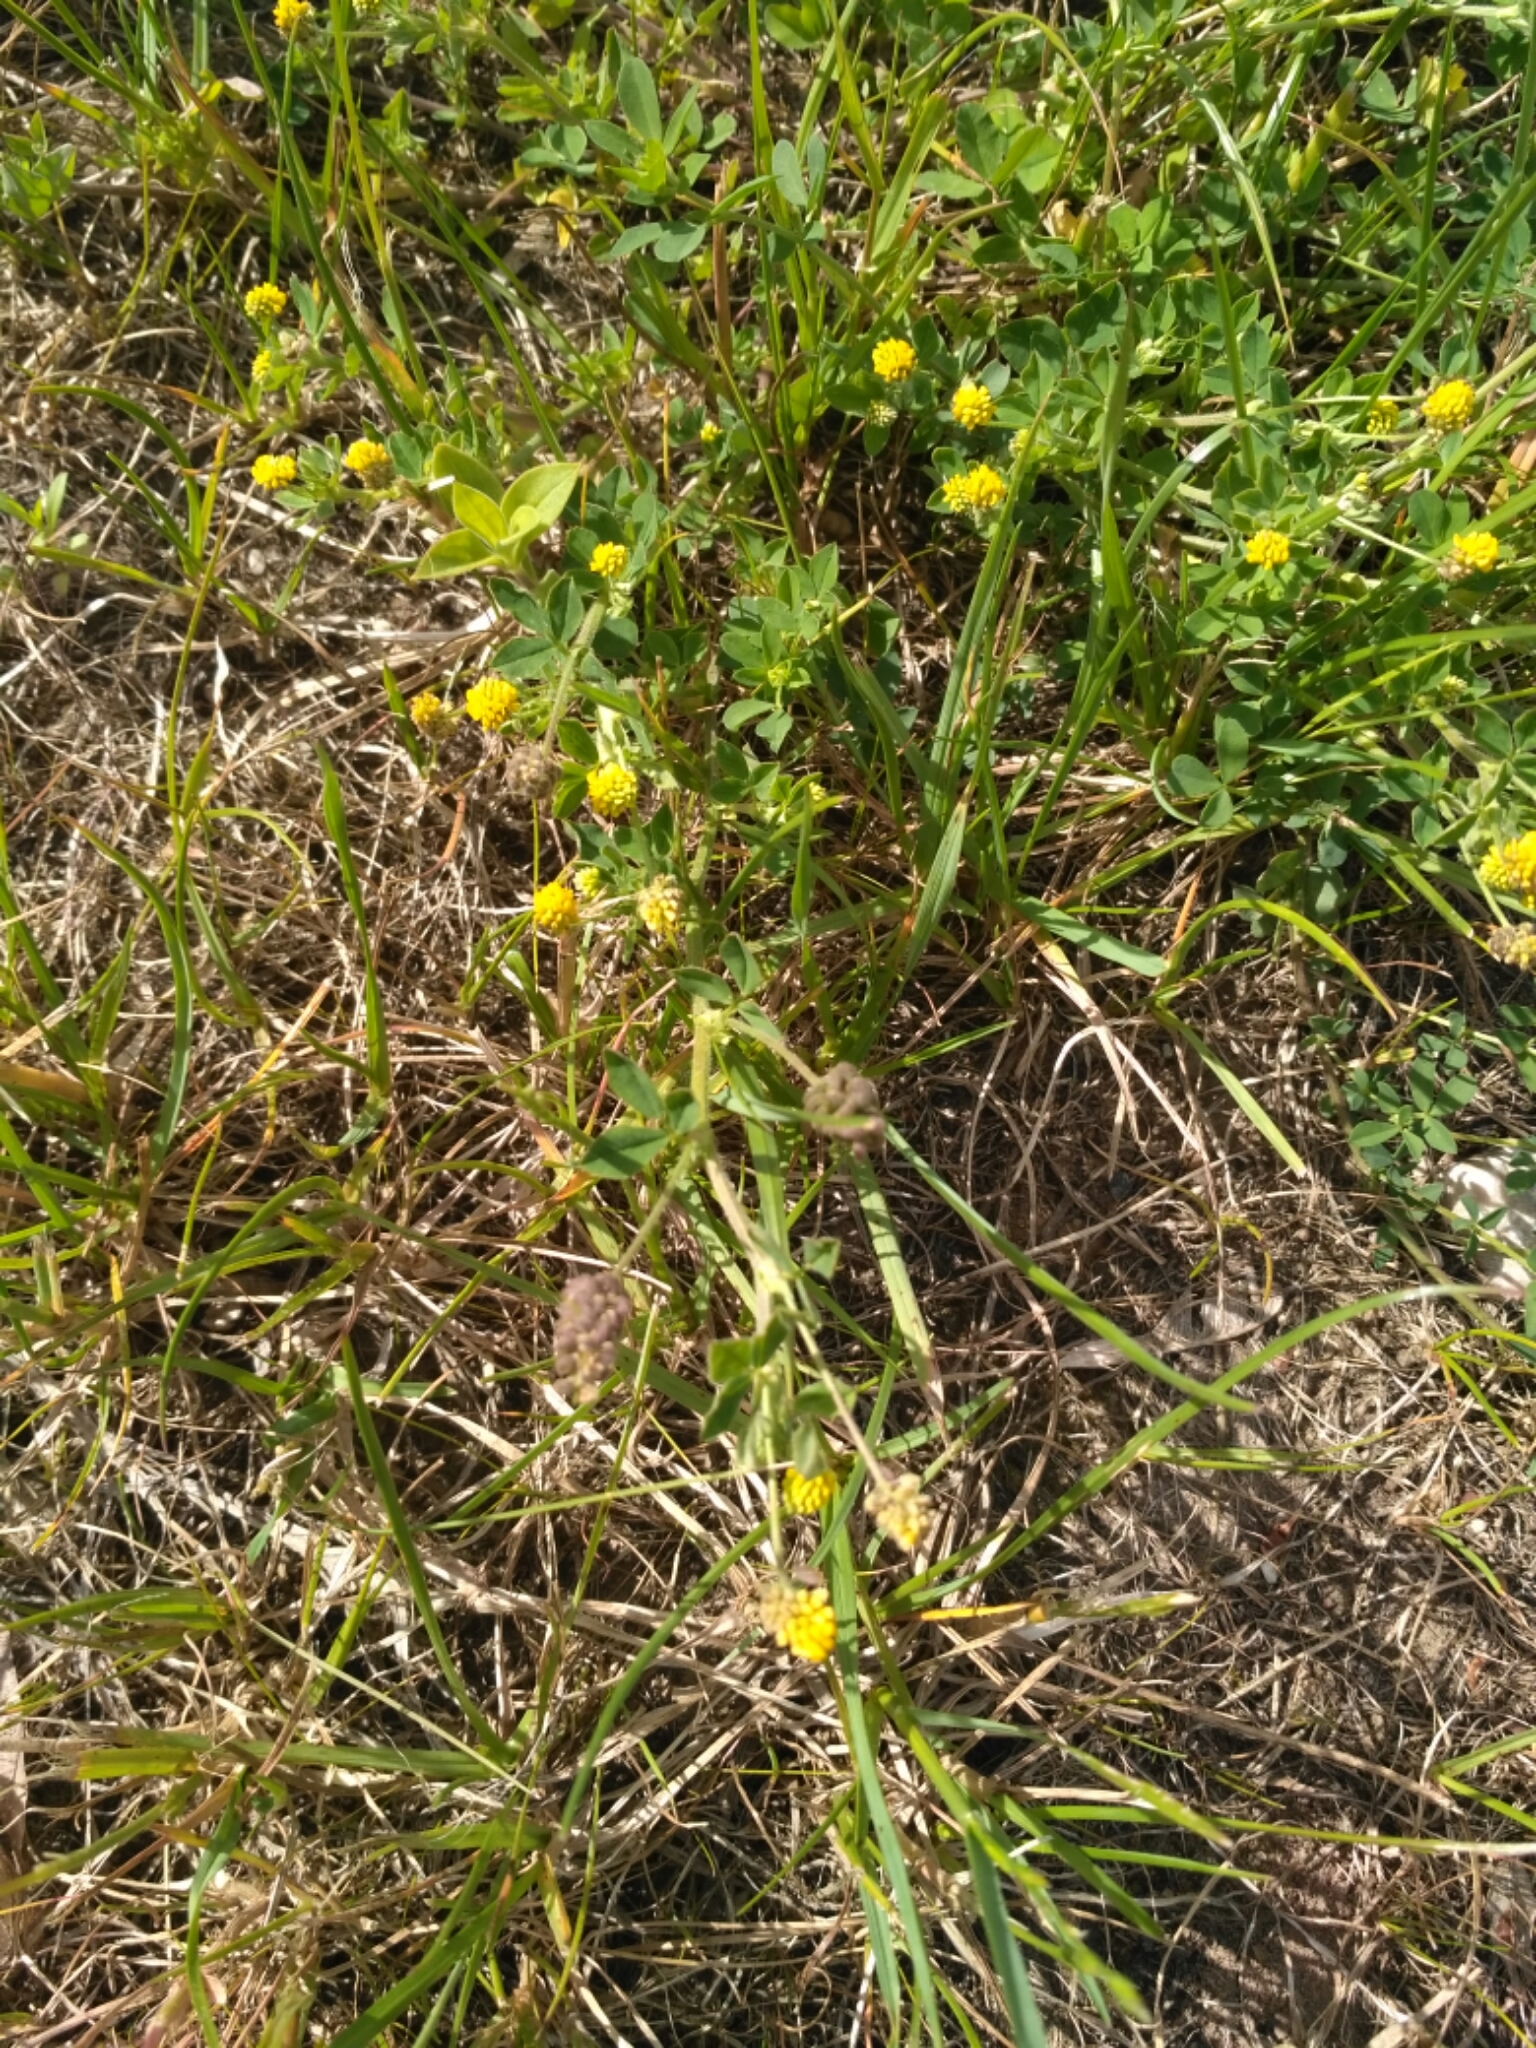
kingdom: Plantae
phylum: Tracheophyta
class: Magnoliopsida
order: Fabales
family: Fabaceae
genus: Medicago
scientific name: Medicago lupulina
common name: Black medick
